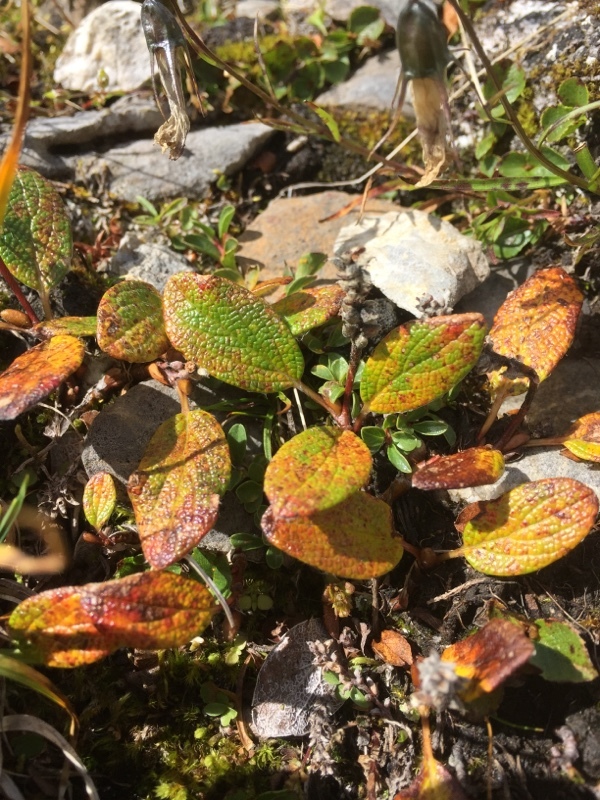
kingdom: Plantae
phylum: Tracheophyta
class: Magnoliopsida
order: Malpighiales
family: Salicaceae
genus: Salix
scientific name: Salix reticulata
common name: Net-leaved willow
